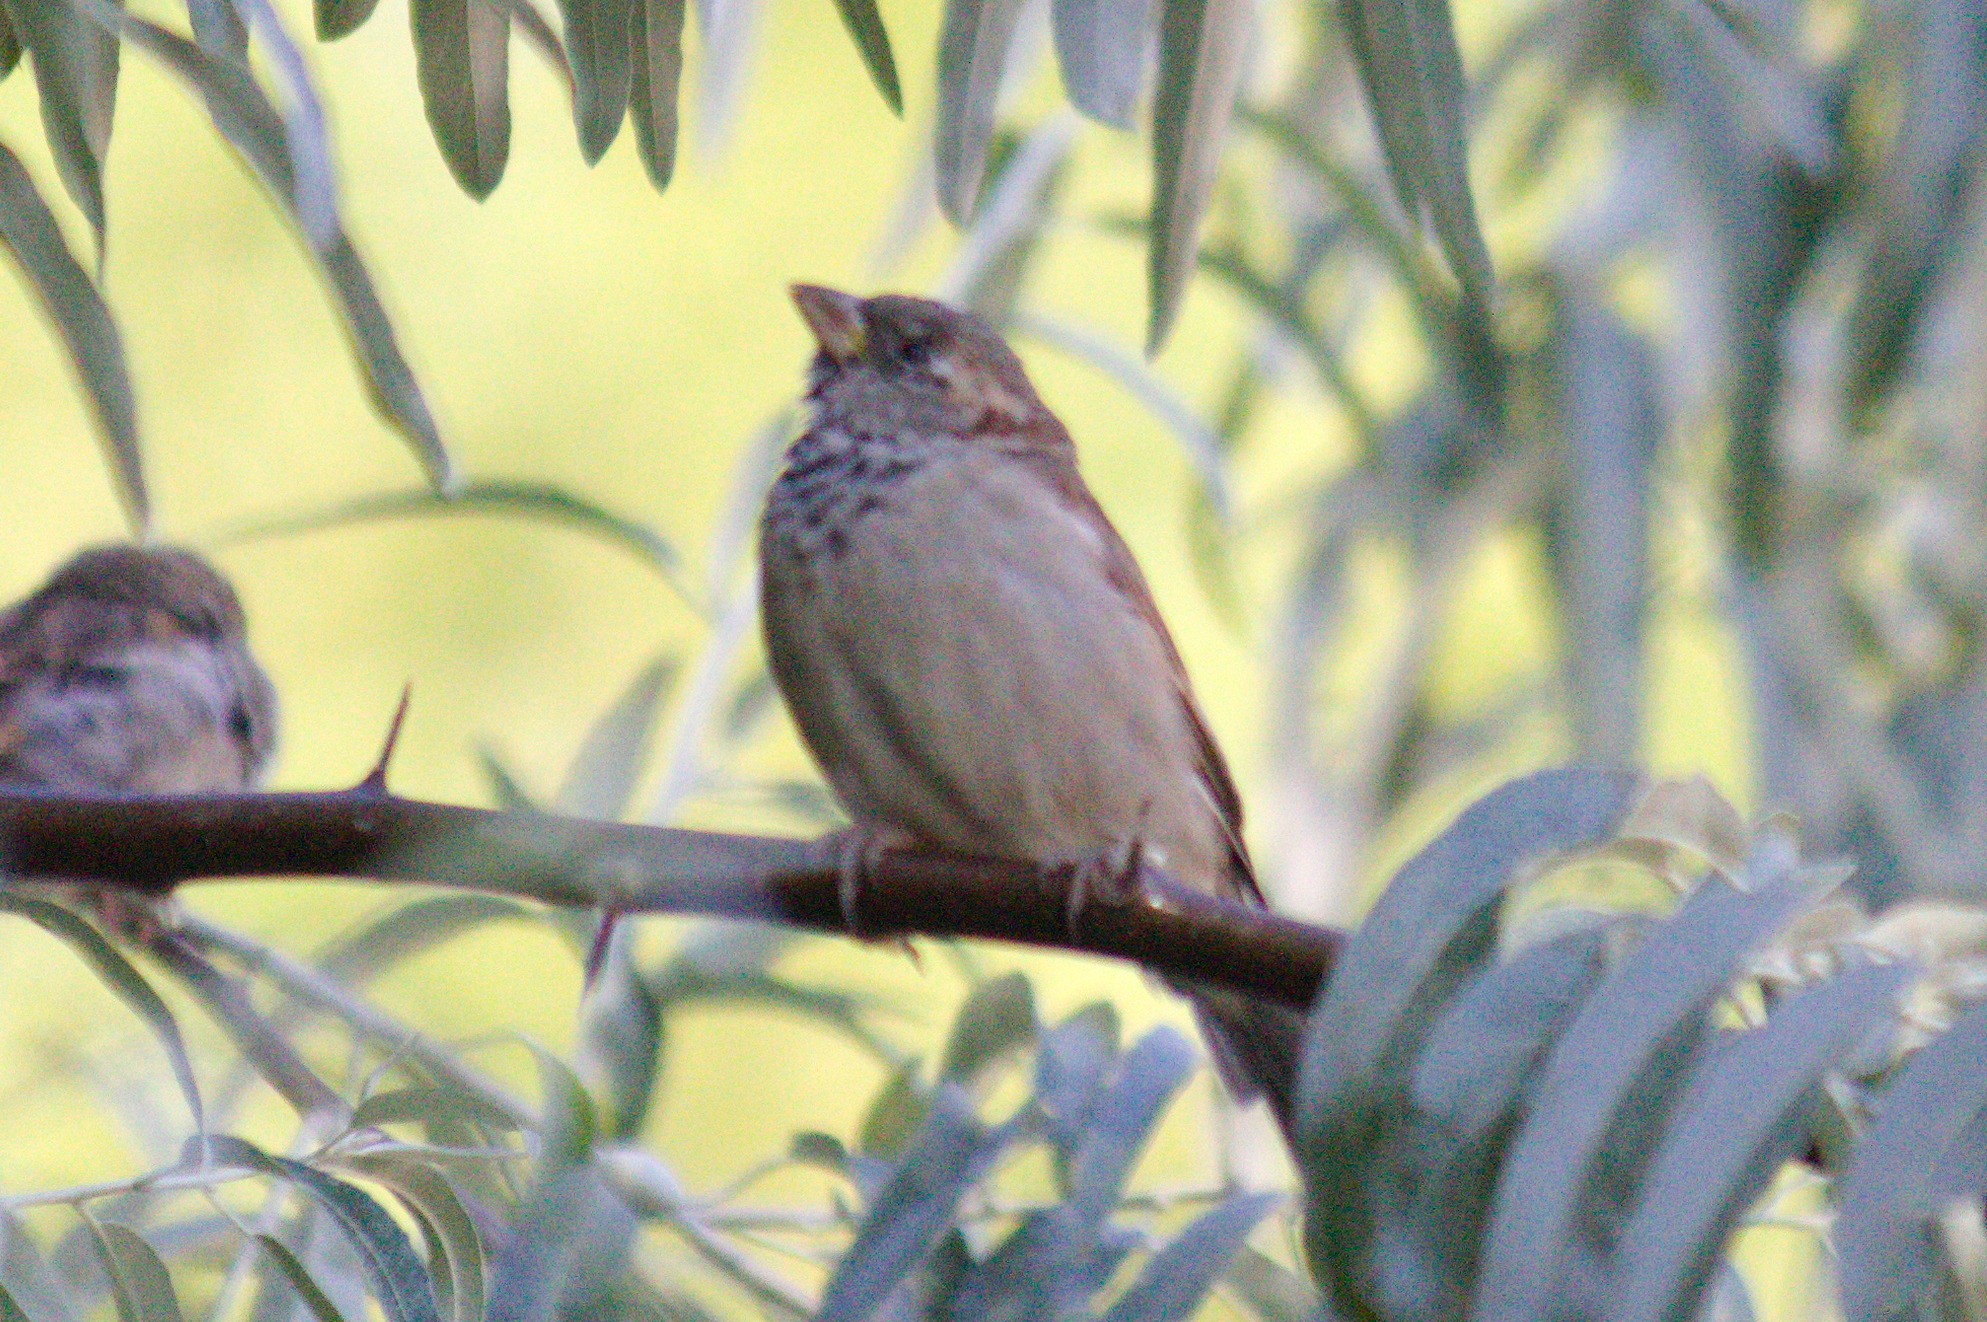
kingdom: Animalia
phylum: Chordata
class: Aves
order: Passeriformes
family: Passeridae
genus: Passer
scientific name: Passer domesticus
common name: House sparrow
